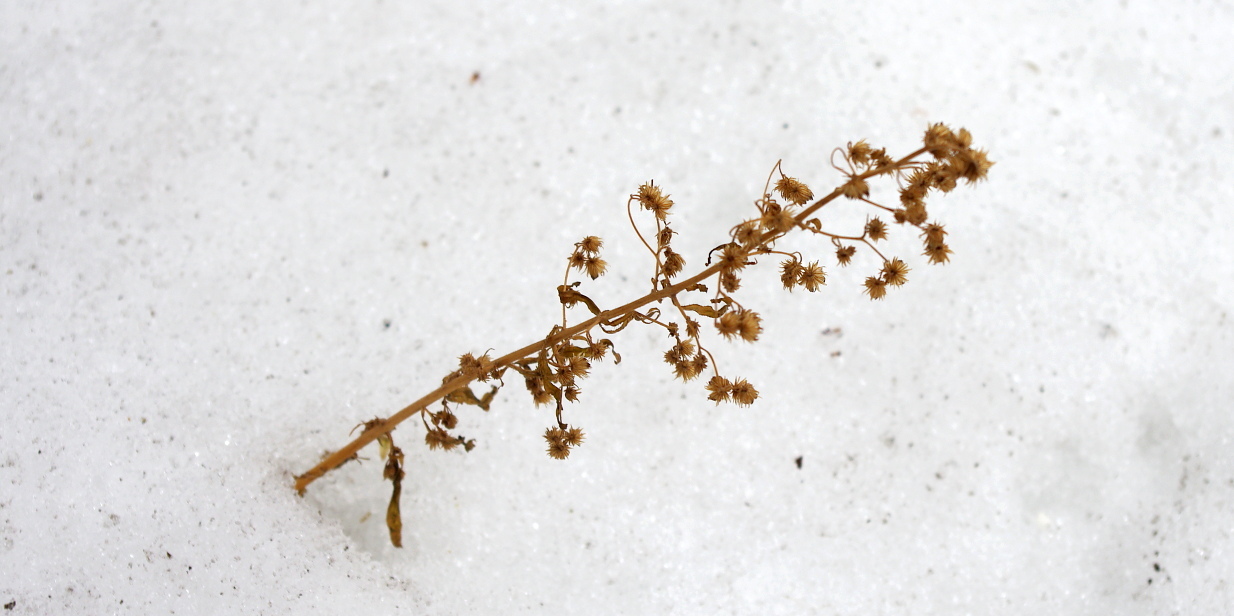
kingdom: Plantae
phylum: Tracheophyta
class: Magnoliopsida
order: Asterales
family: Asteraceae
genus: Erigeron
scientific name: Erigeron canadensis
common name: Canadian fleabane
